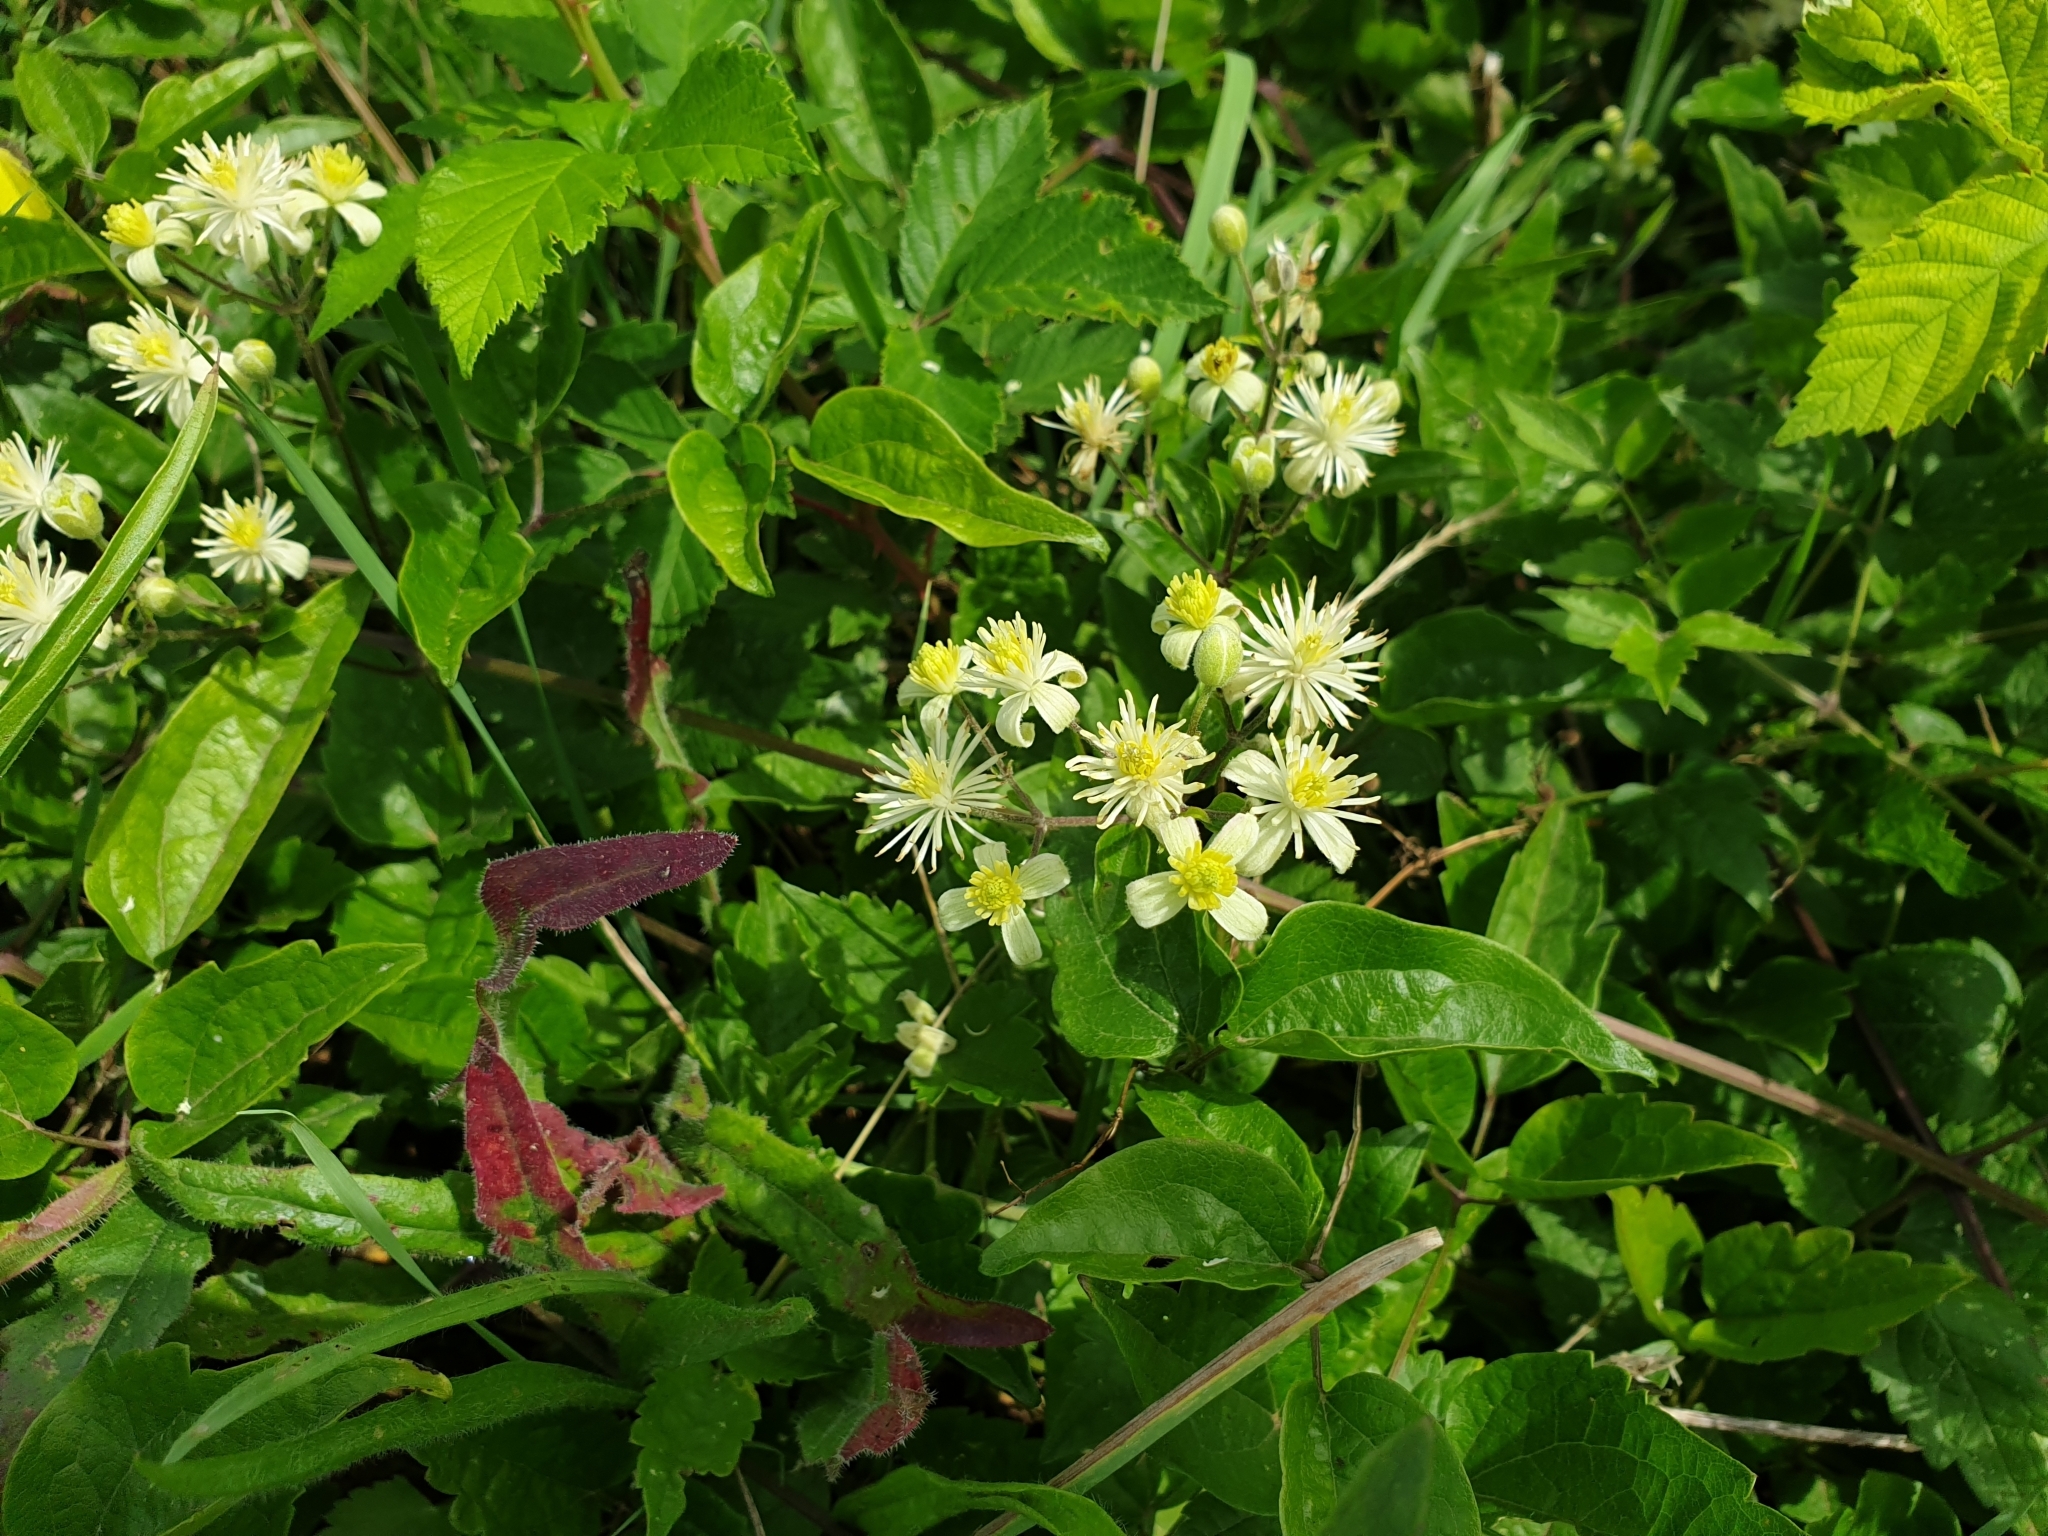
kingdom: Plantae
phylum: Tracheophyta
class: Magnoliopsida
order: Ranunculales
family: Ranunculaceae
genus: Clematis
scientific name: Clematis vitalba
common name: Evergreen clematis
